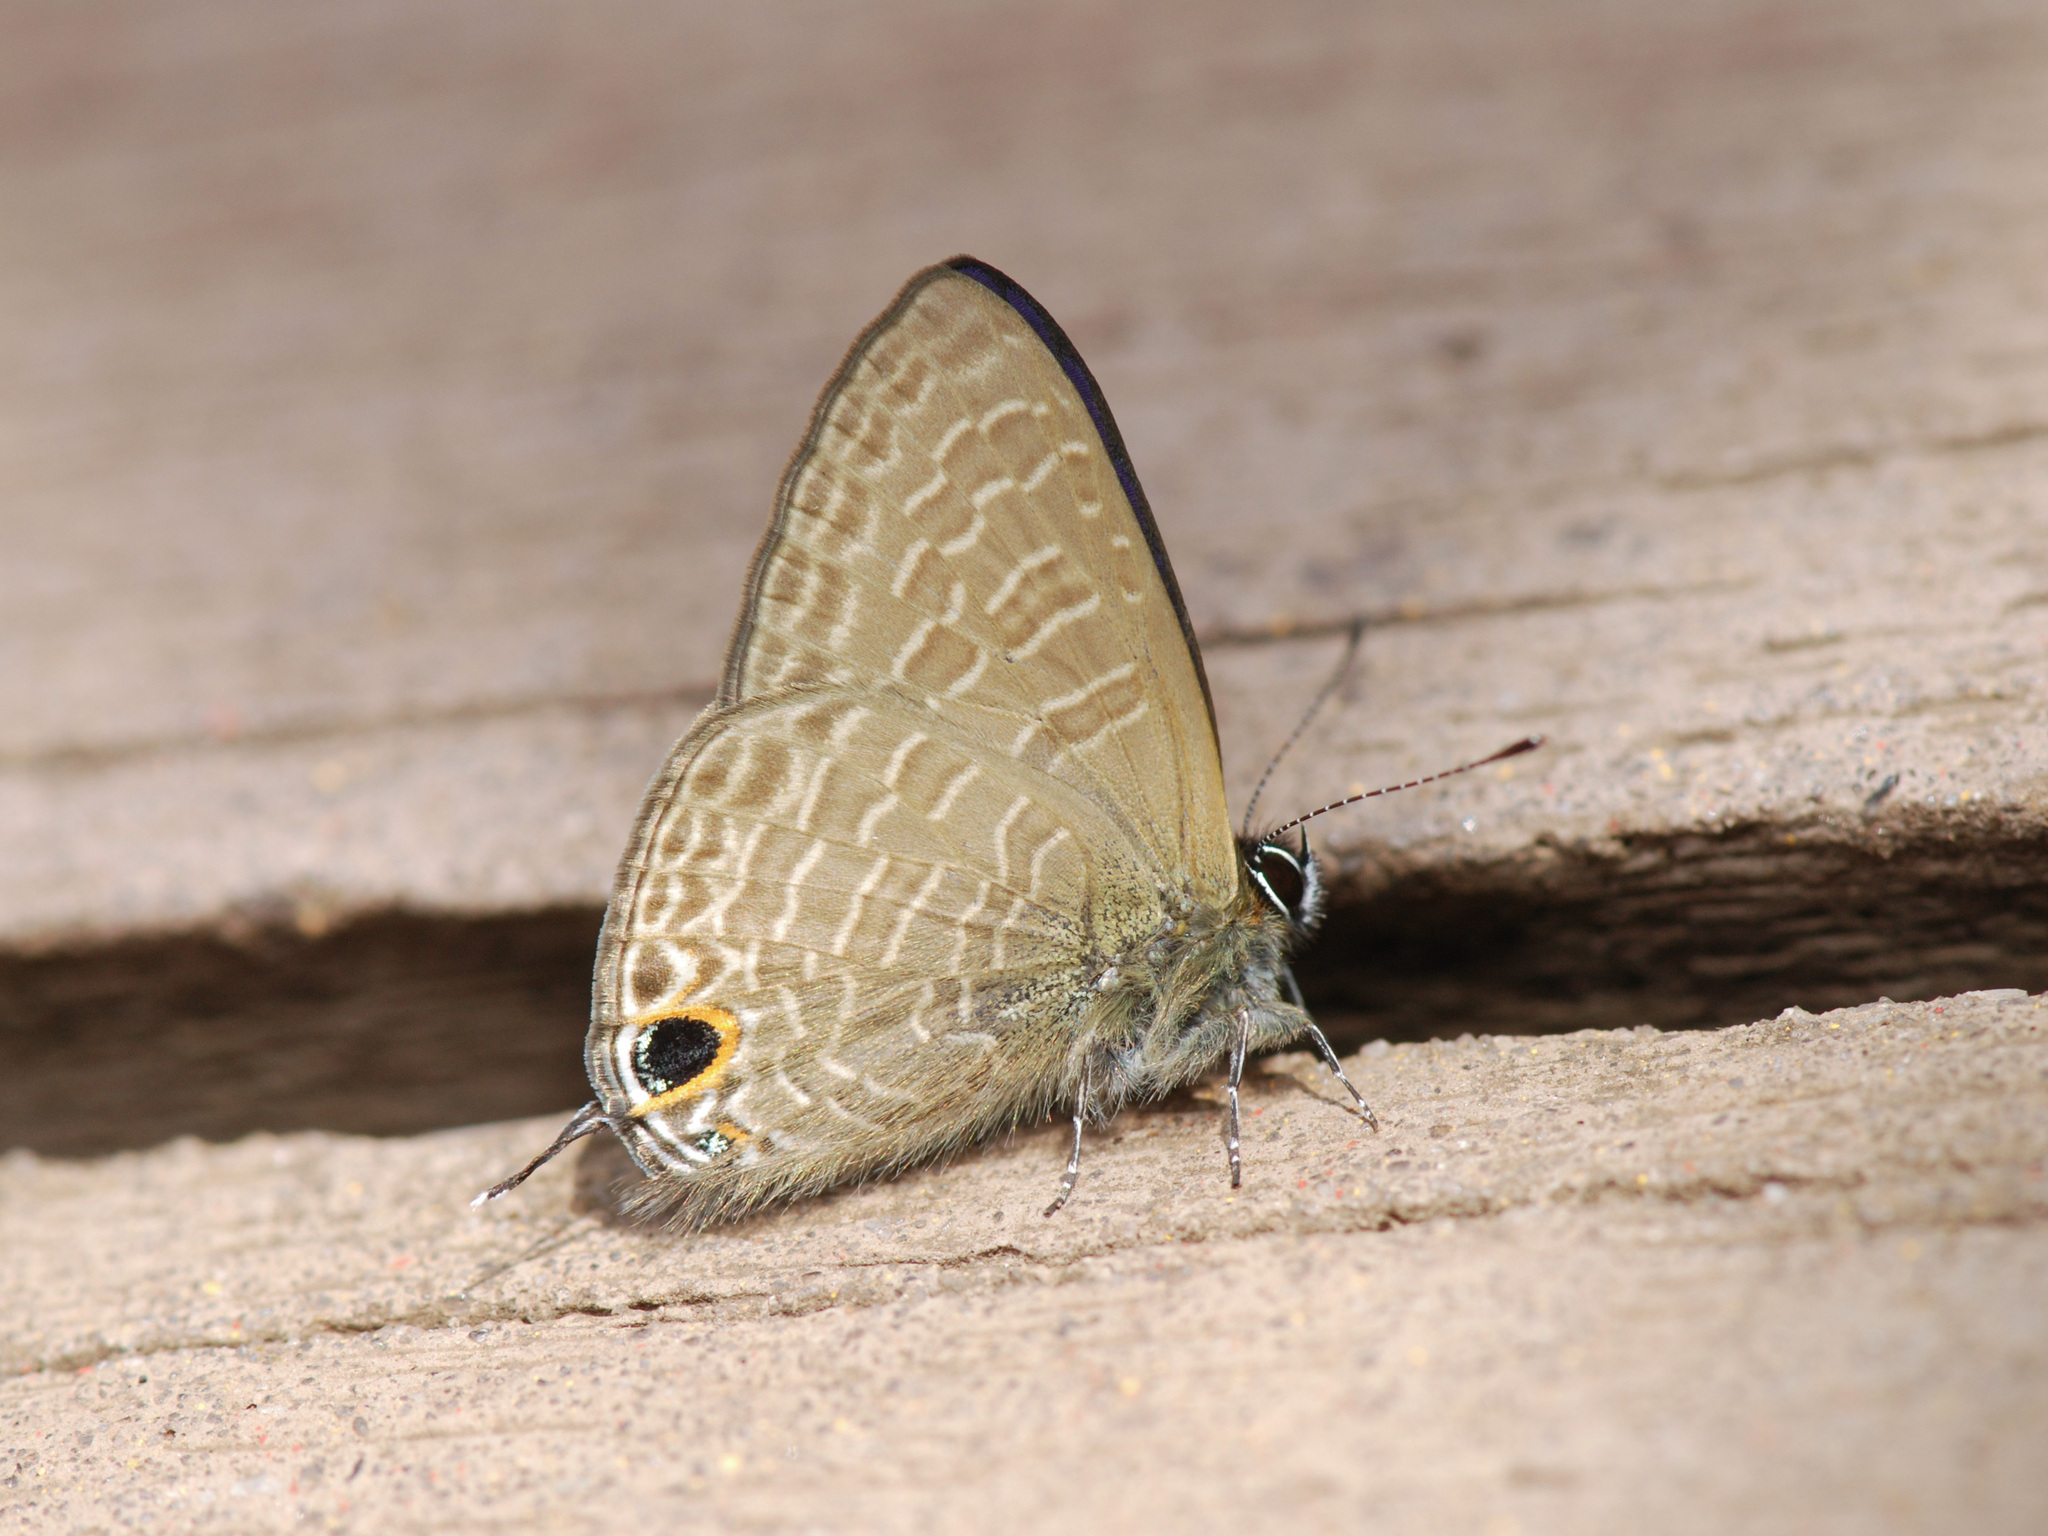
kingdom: Animalia
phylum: Arthropoda
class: Insecta
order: Lepidoptera
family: Lycaenidae
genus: Ionolyce
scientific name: Ionolyce helicon
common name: Pointed line blue
